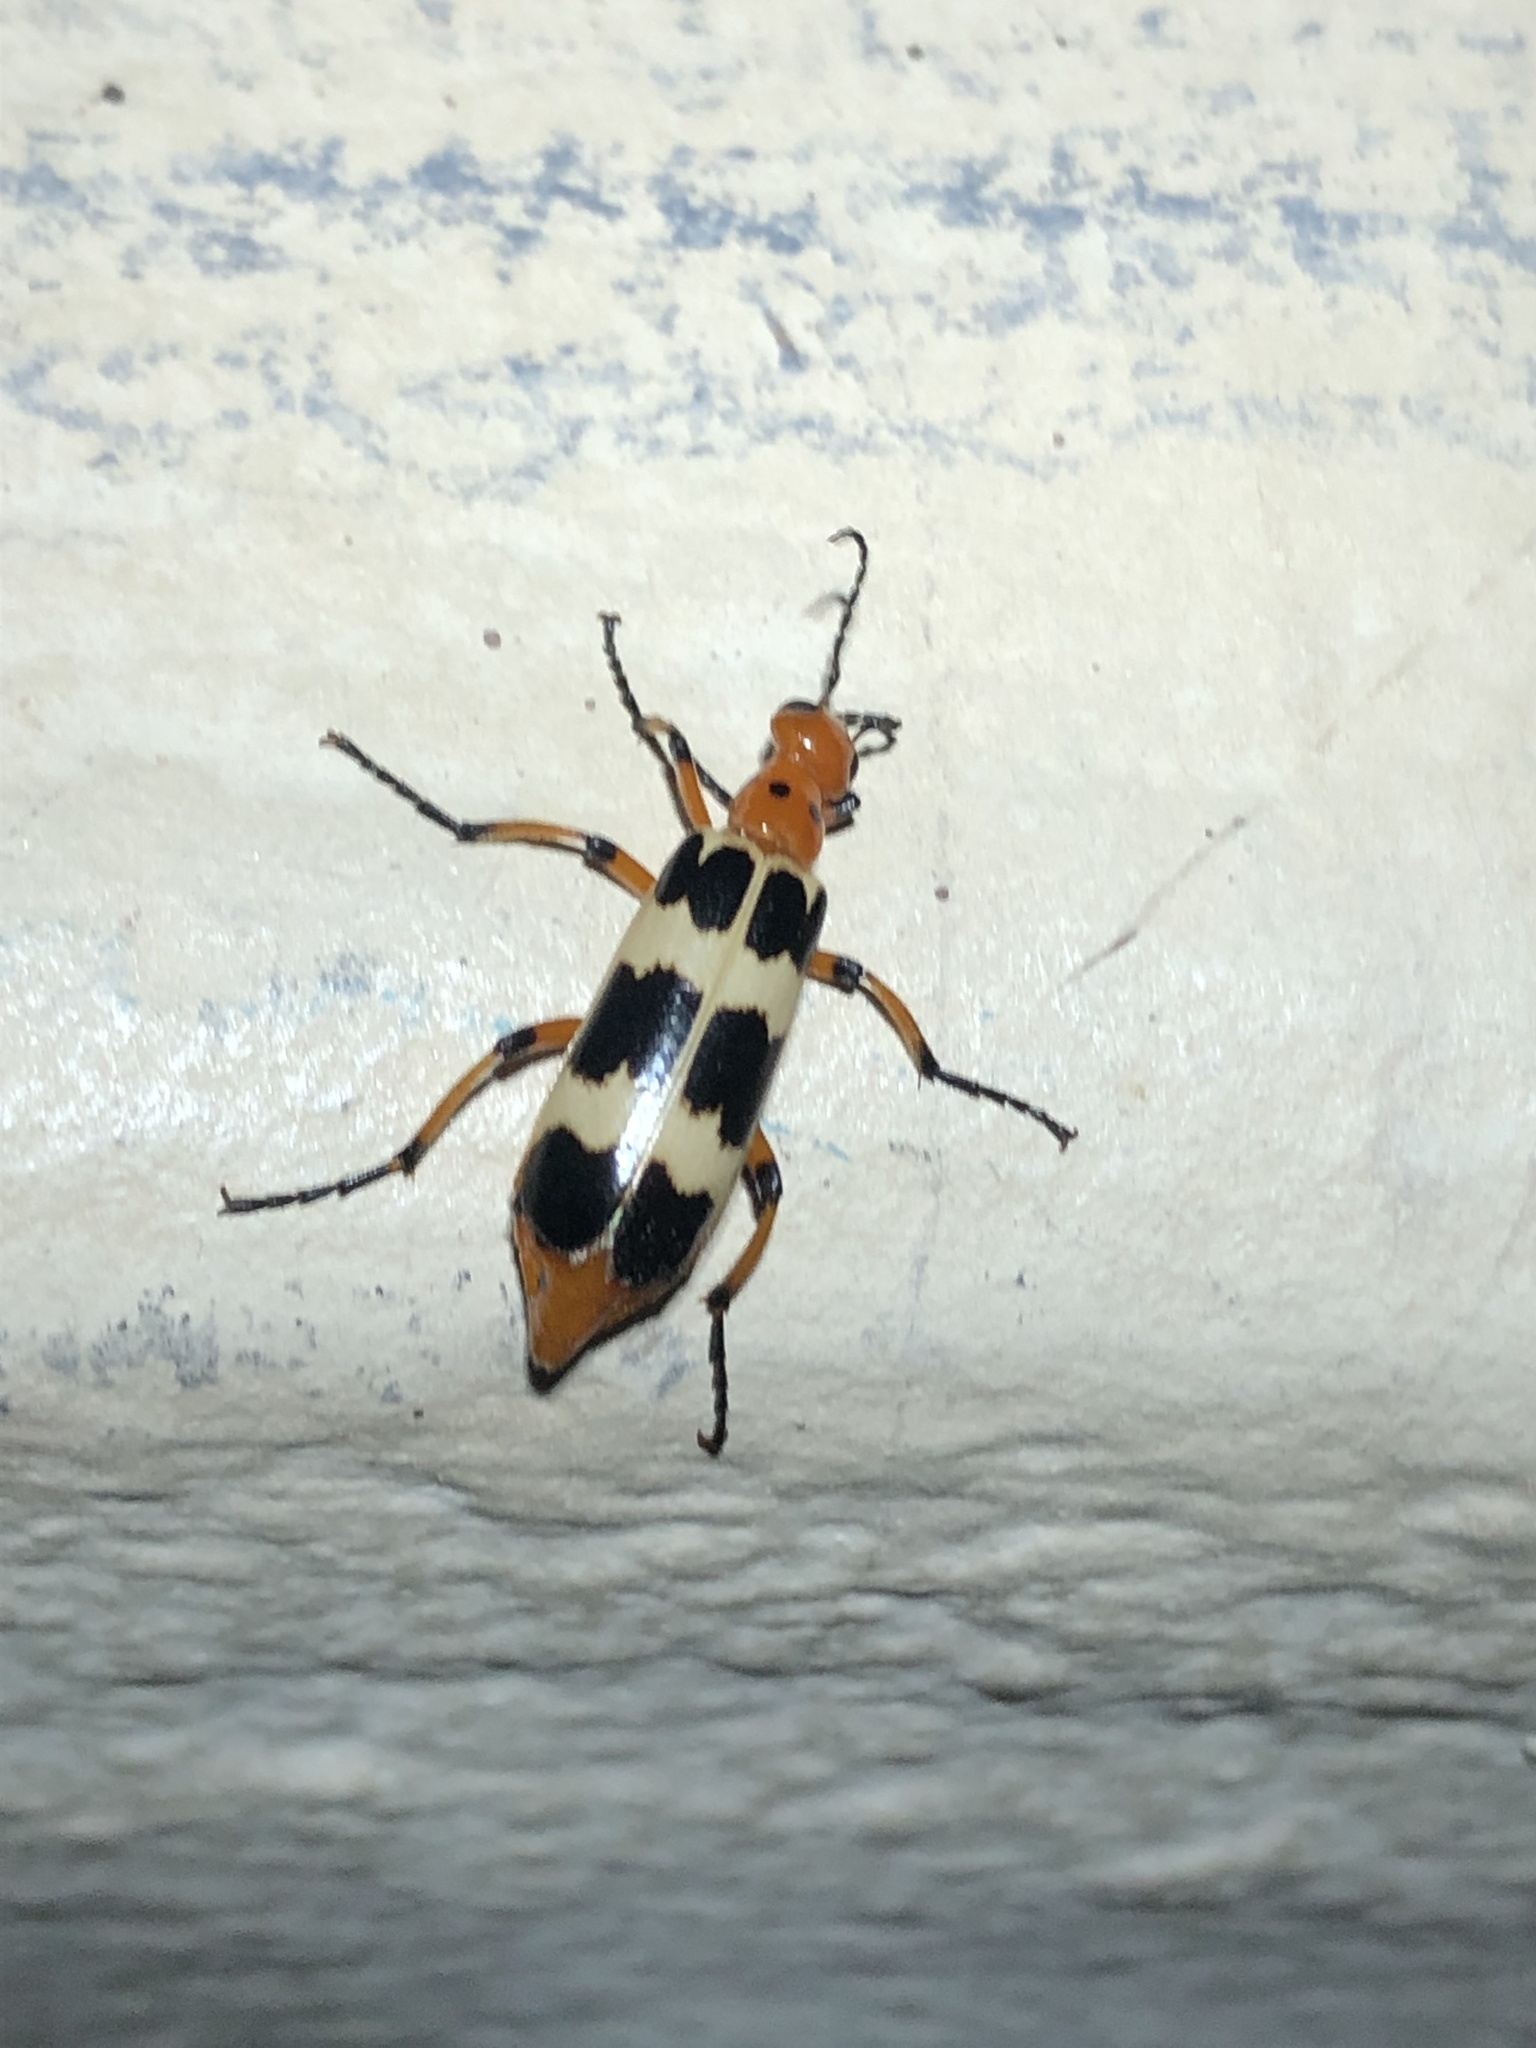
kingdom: Animalia
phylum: Arthropoda
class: Insecta
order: Coleoptera
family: Meloidae
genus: Pyrota
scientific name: Pyrota palpalis
